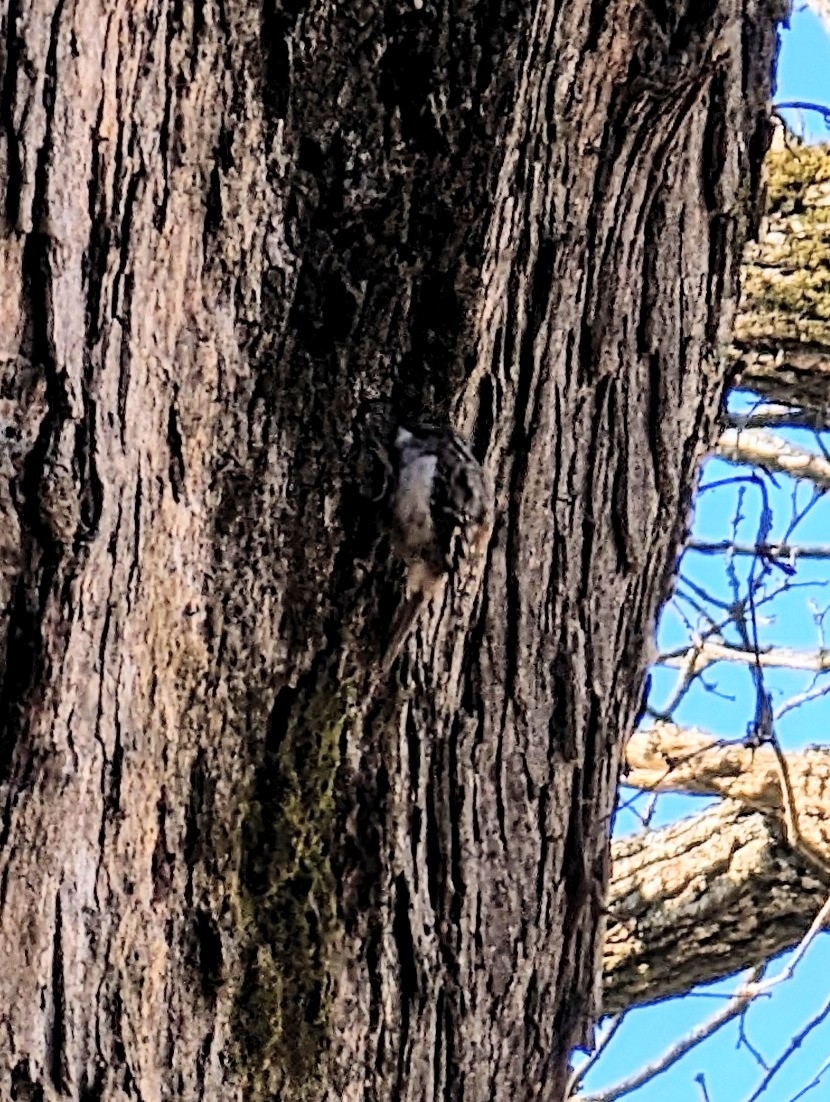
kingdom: Animalia
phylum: Chordata
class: Aves
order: Passeriformes
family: Certhiidae
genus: Certhia
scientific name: Certhia americana
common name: Brown creeper
